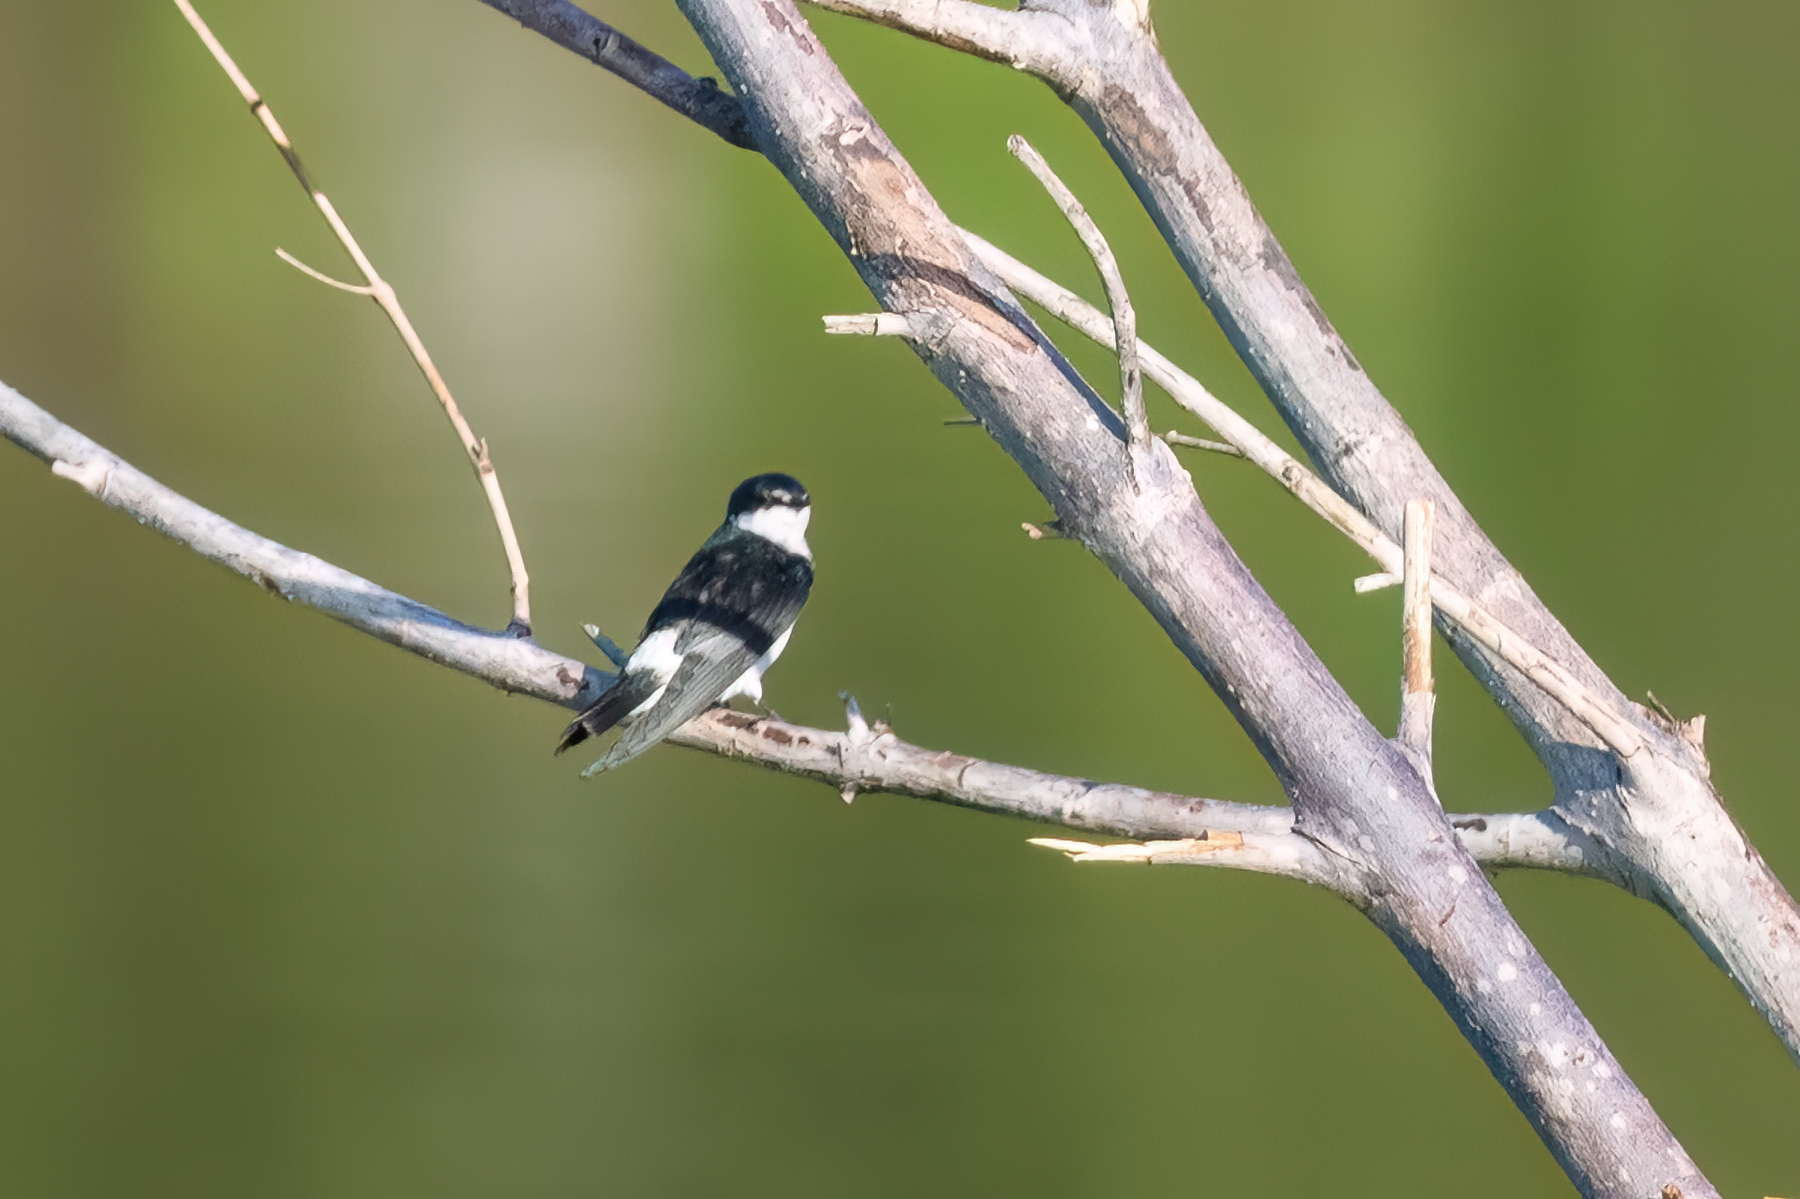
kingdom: Animalia
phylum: Chordata
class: Aves
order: Passeriformes
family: Hirundinidae
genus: Tachycineta
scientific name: Tachycineta albilinea
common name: Mangrove swallow
